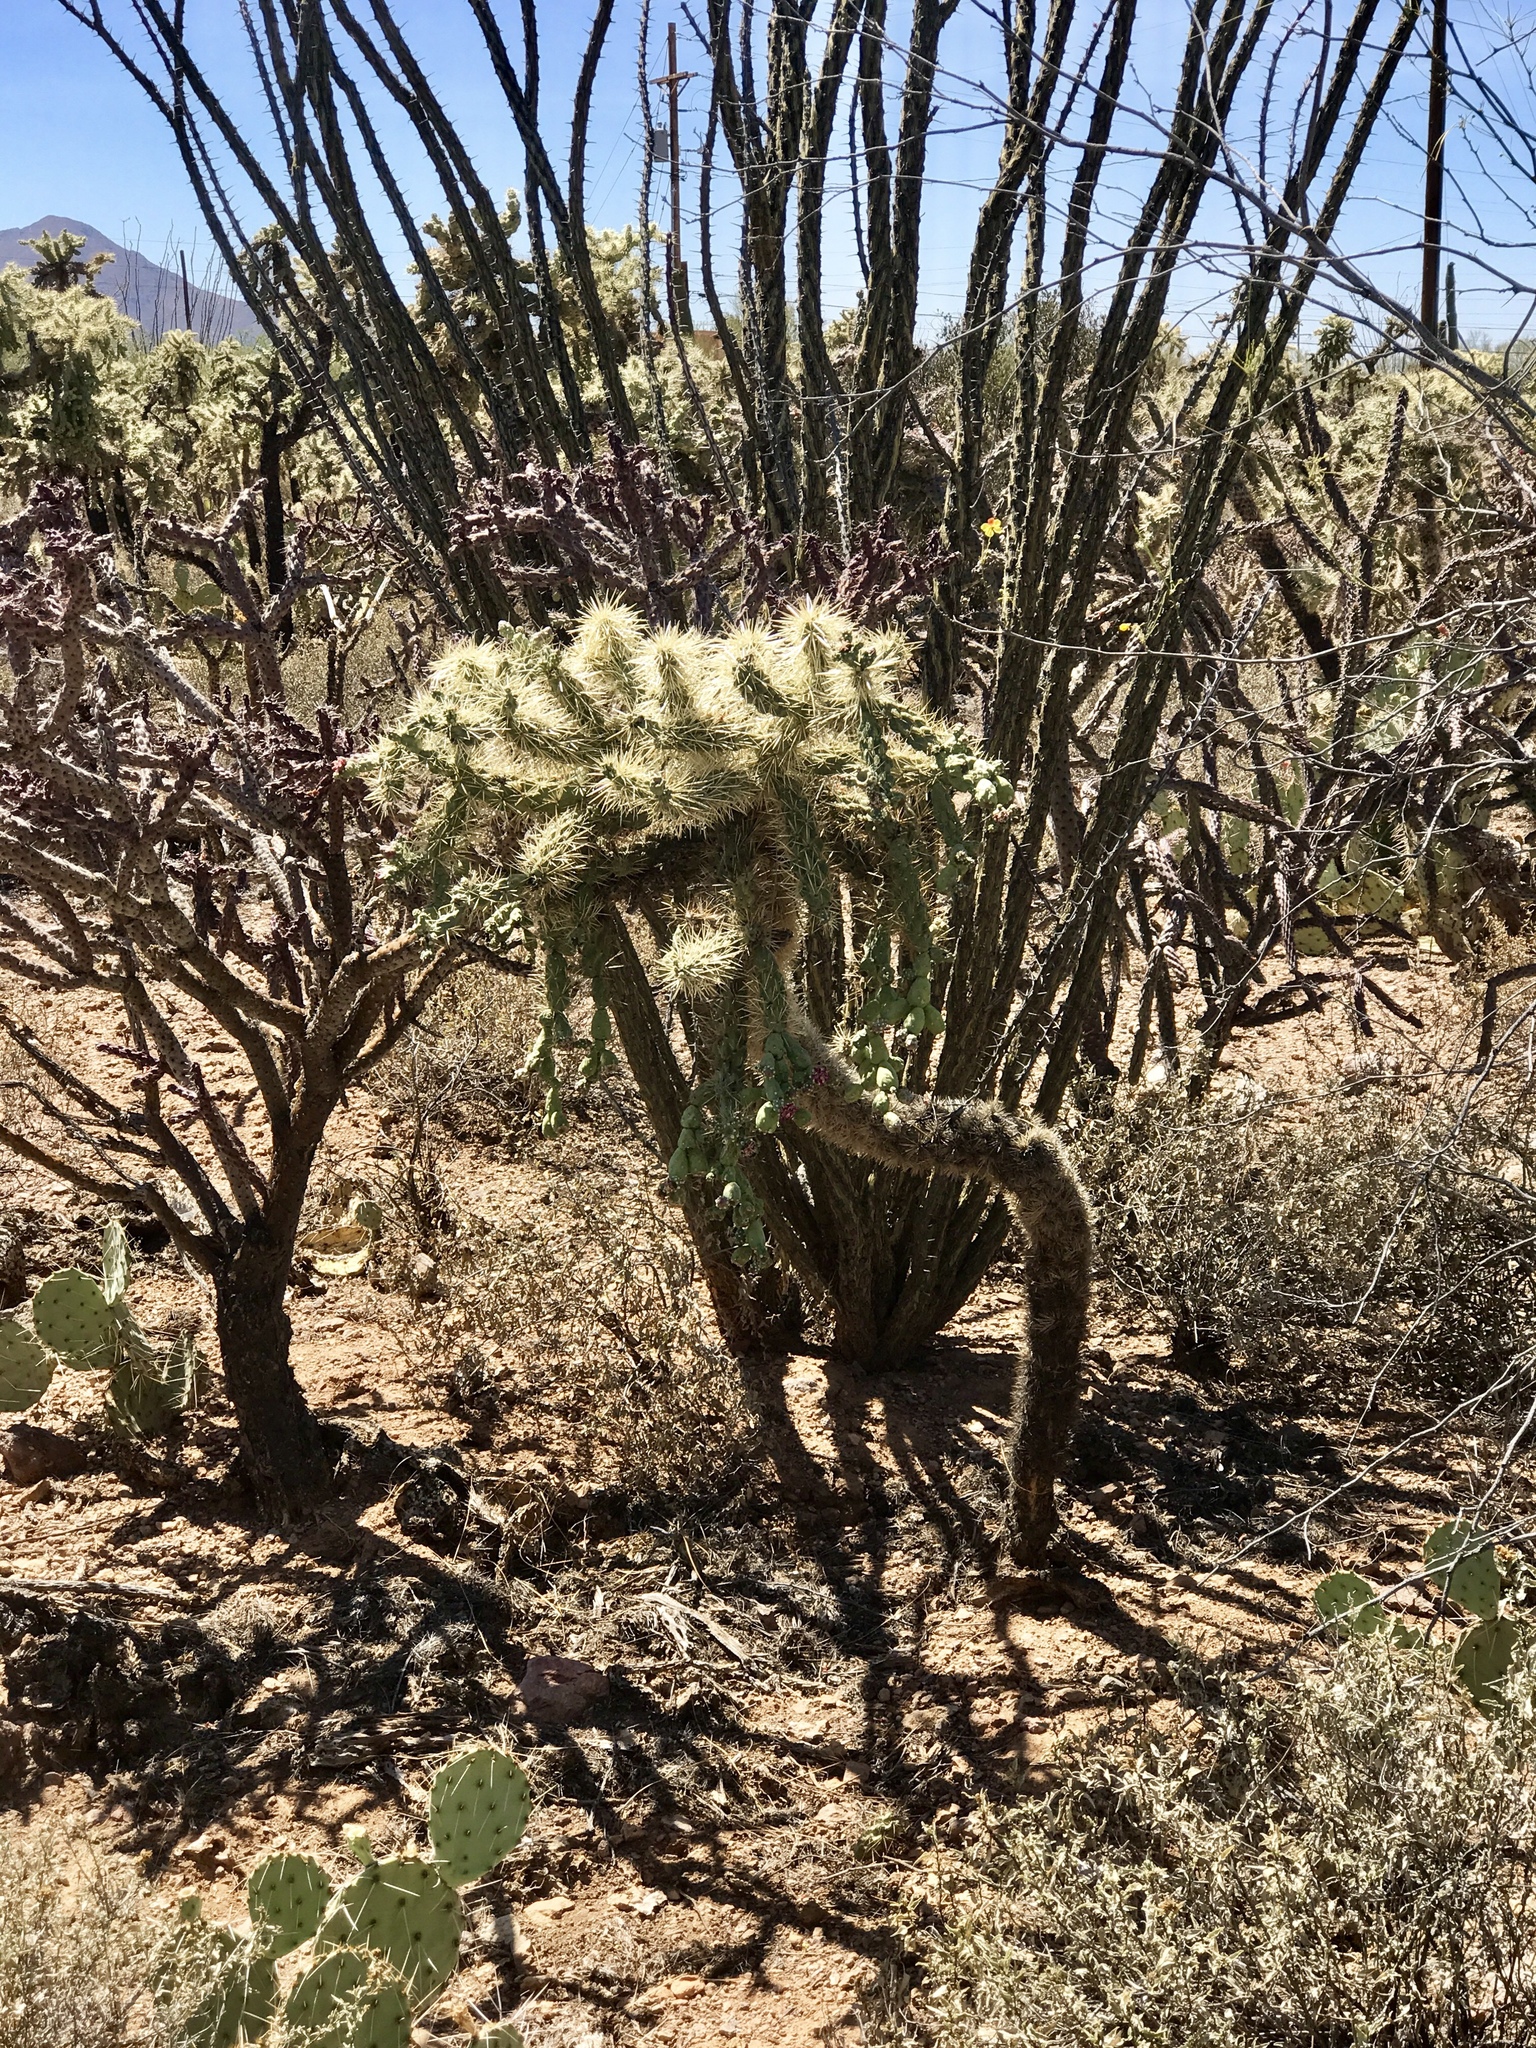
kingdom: Plantae
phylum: Tracheophyta
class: Magnoliopsida
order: Caryophyllales
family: Cactaceae
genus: Cylindropuntia
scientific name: Cylindropuntia fulgida
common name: Jumping cholla
